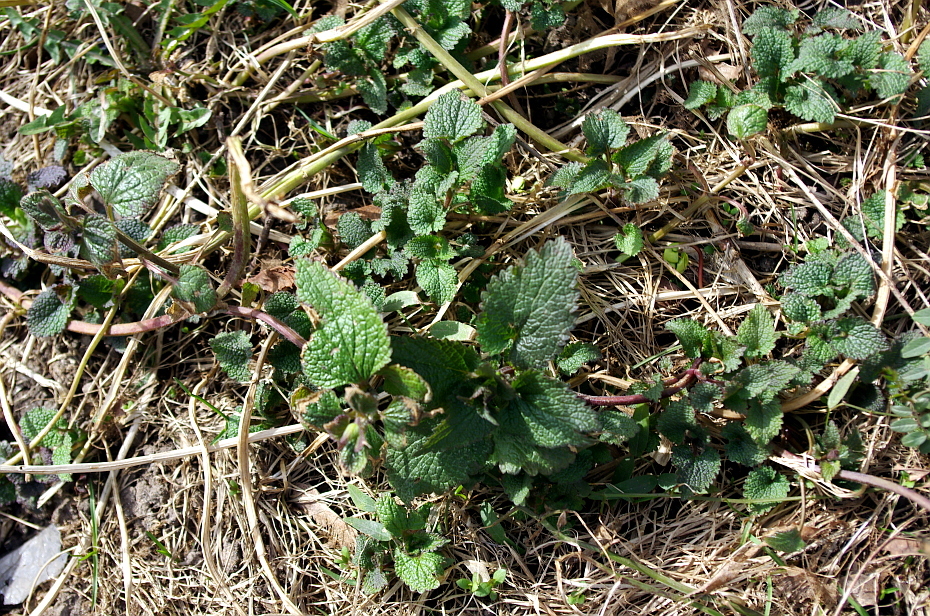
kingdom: Plantae
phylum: Tracheophyta
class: Magnoliopsida
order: Lamiales
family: Lamiaceae
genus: Lamium
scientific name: Lamium album
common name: White dead-nettle
